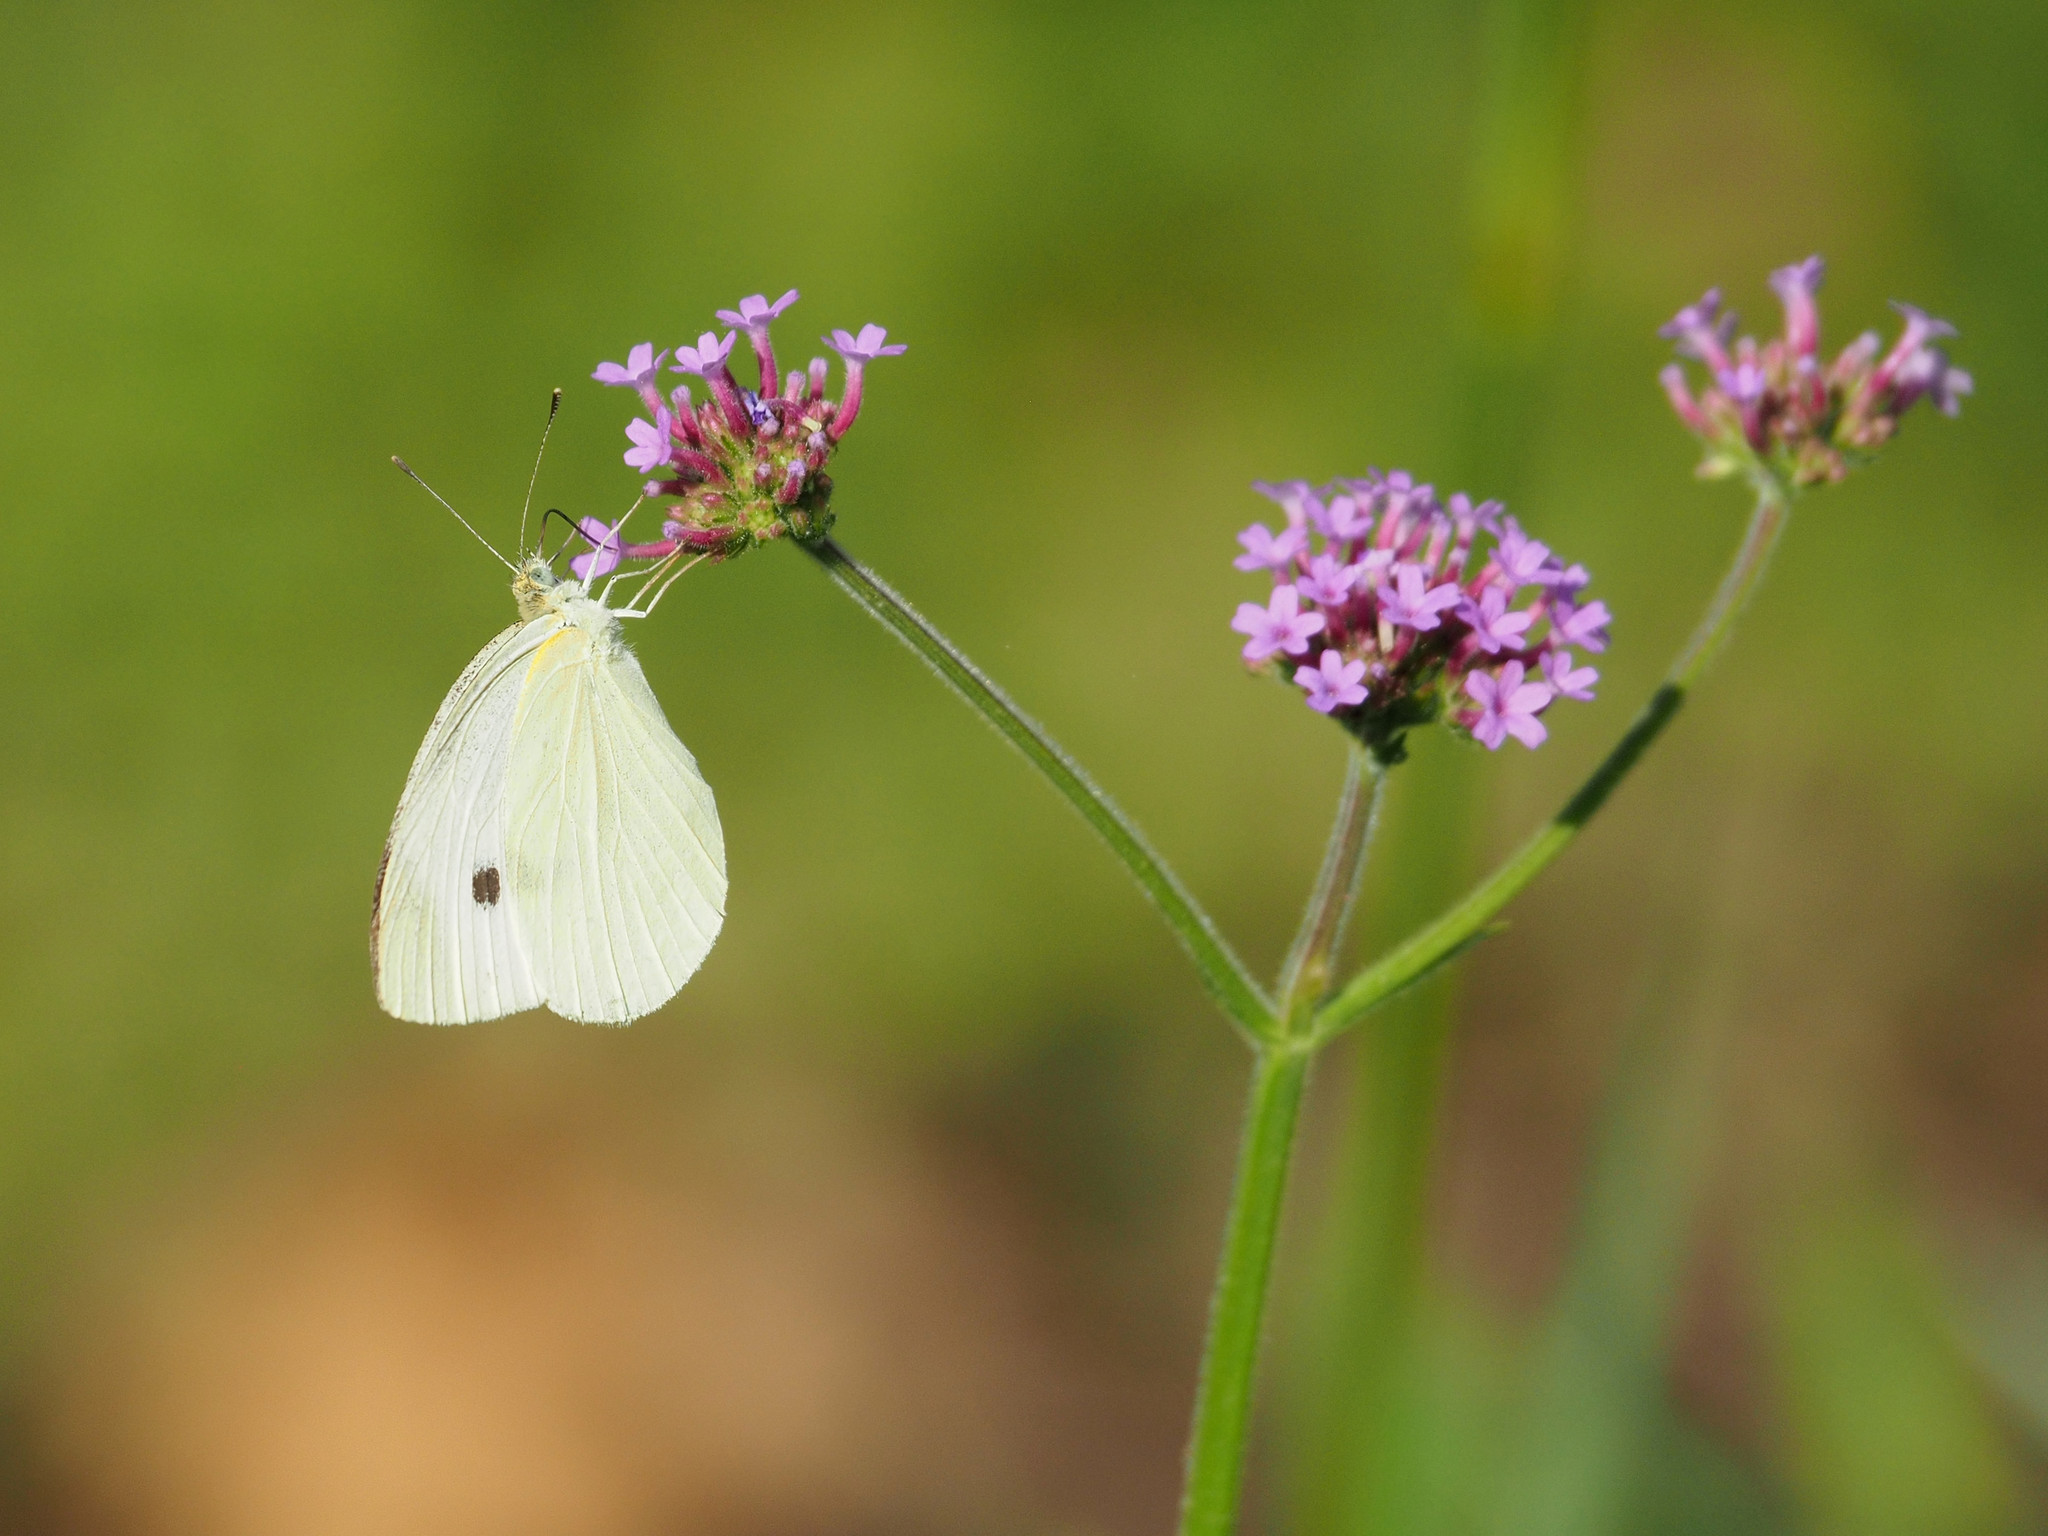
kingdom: Animalia
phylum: Arthropoda
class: Insecta
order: Lepidoptera
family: Pieridae
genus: Pieris
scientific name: Pieris rapae
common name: Small white
